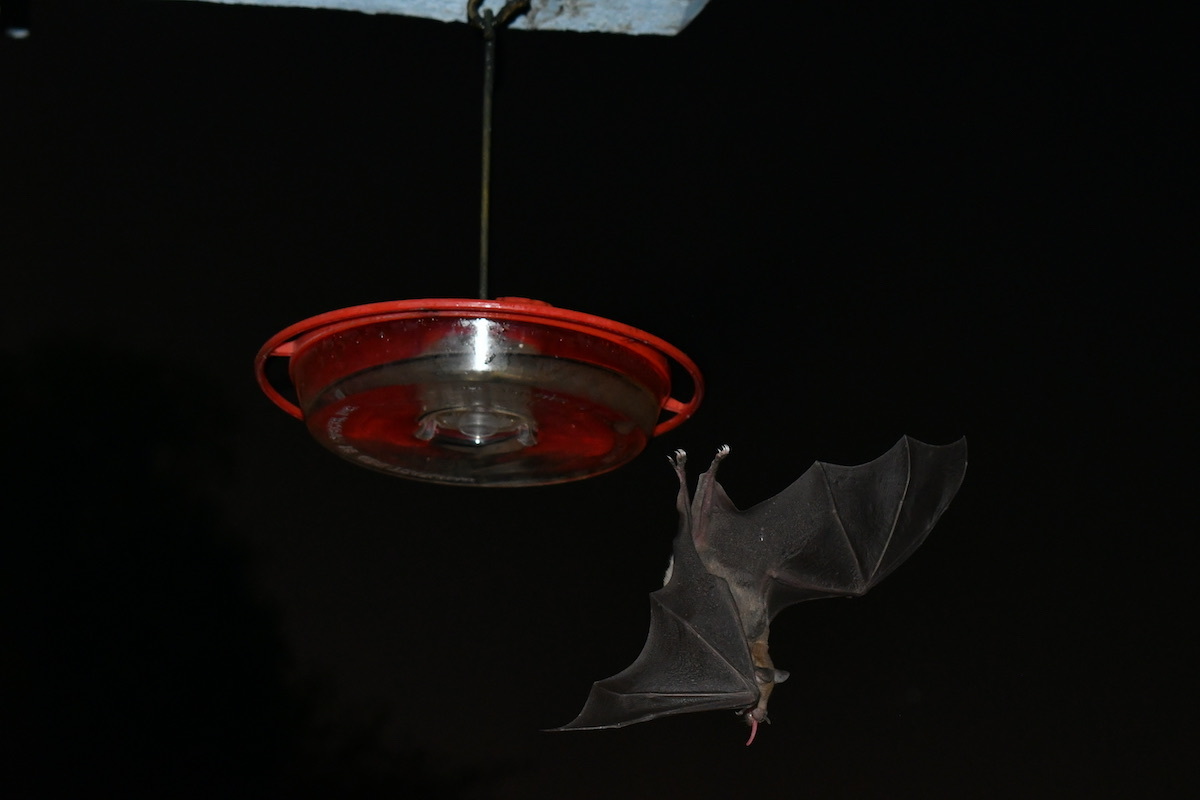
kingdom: Animalia
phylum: Chordata
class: Mammalia
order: Chiroptera
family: Phyllostomidae
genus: Leptonycteris
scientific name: Leptonycteris yerbabuenae
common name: Lesser long-nosed bat
